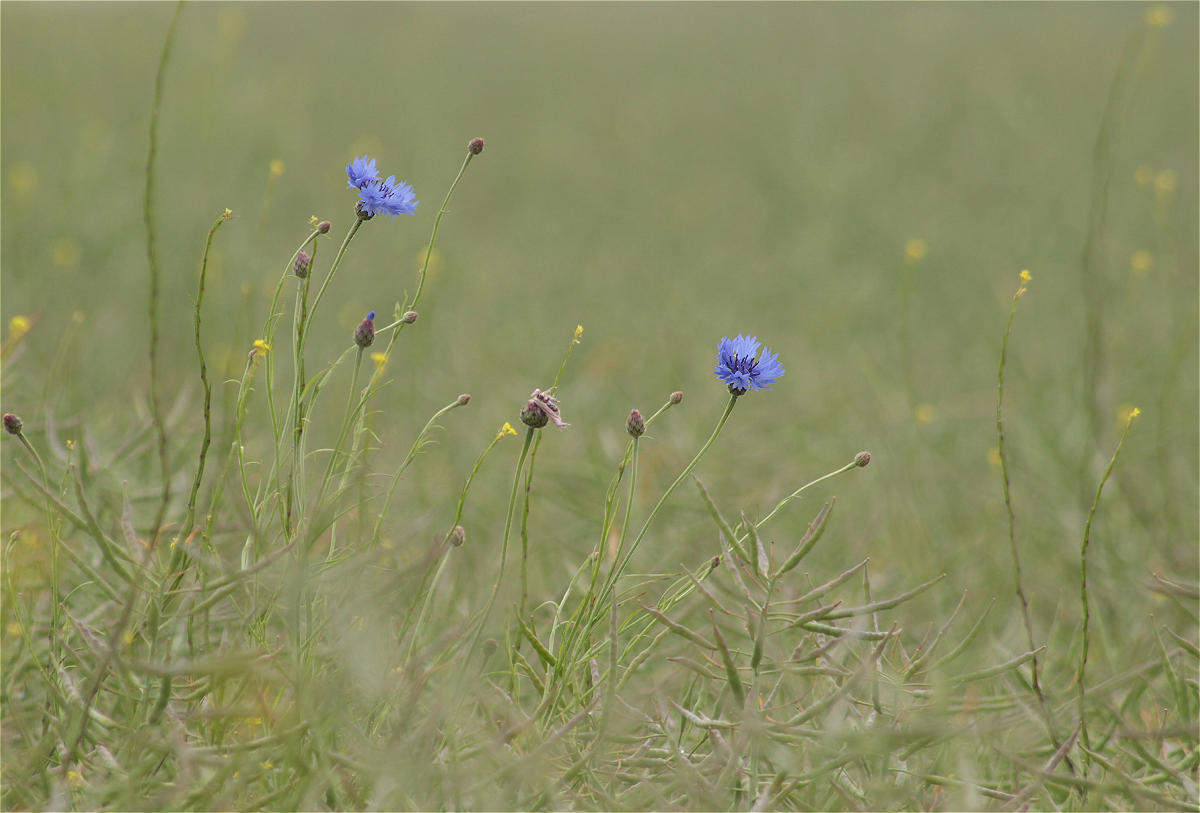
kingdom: Plantae
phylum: Tracheophyta
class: Magnoliopsida
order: Asterales
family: Asteraceae
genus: Centaurea
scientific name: Centaurea cyanus
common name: Cornflower
